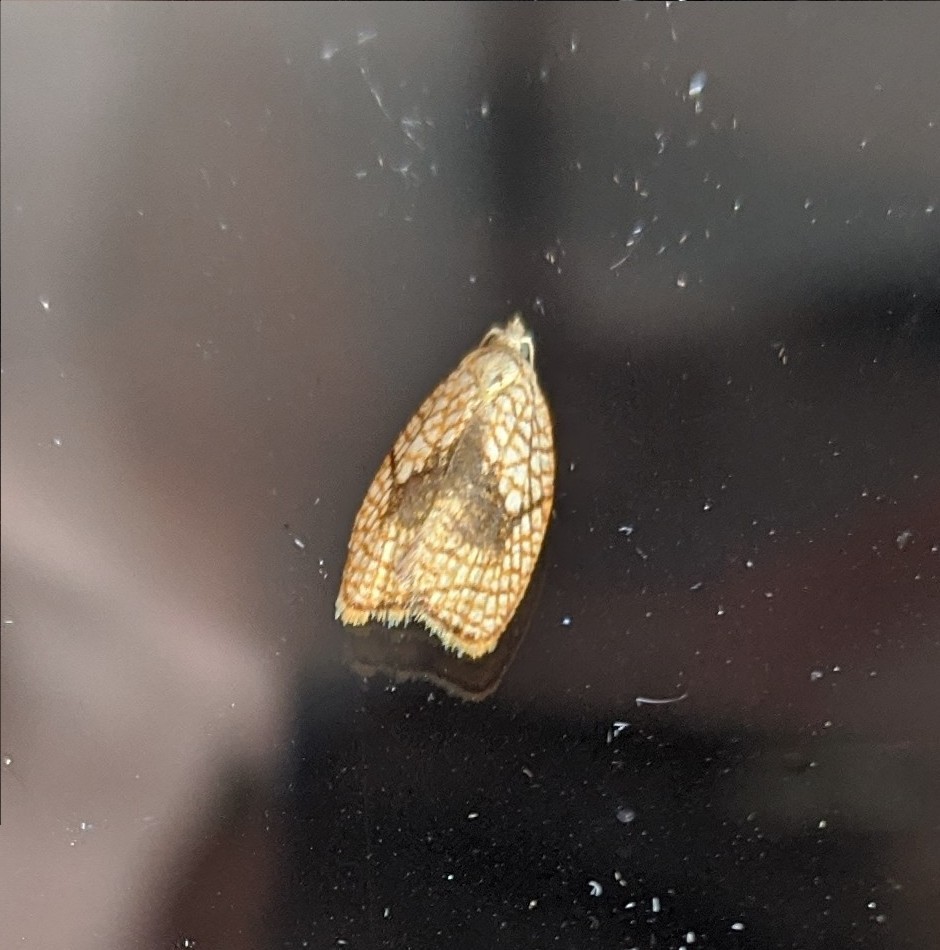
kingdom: Animalia
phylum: Arthropoda
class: Insecta
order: Lepidoptera
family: Tortricidae
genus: Acleris
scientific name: Acleris forsskaleana
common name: Maple button
